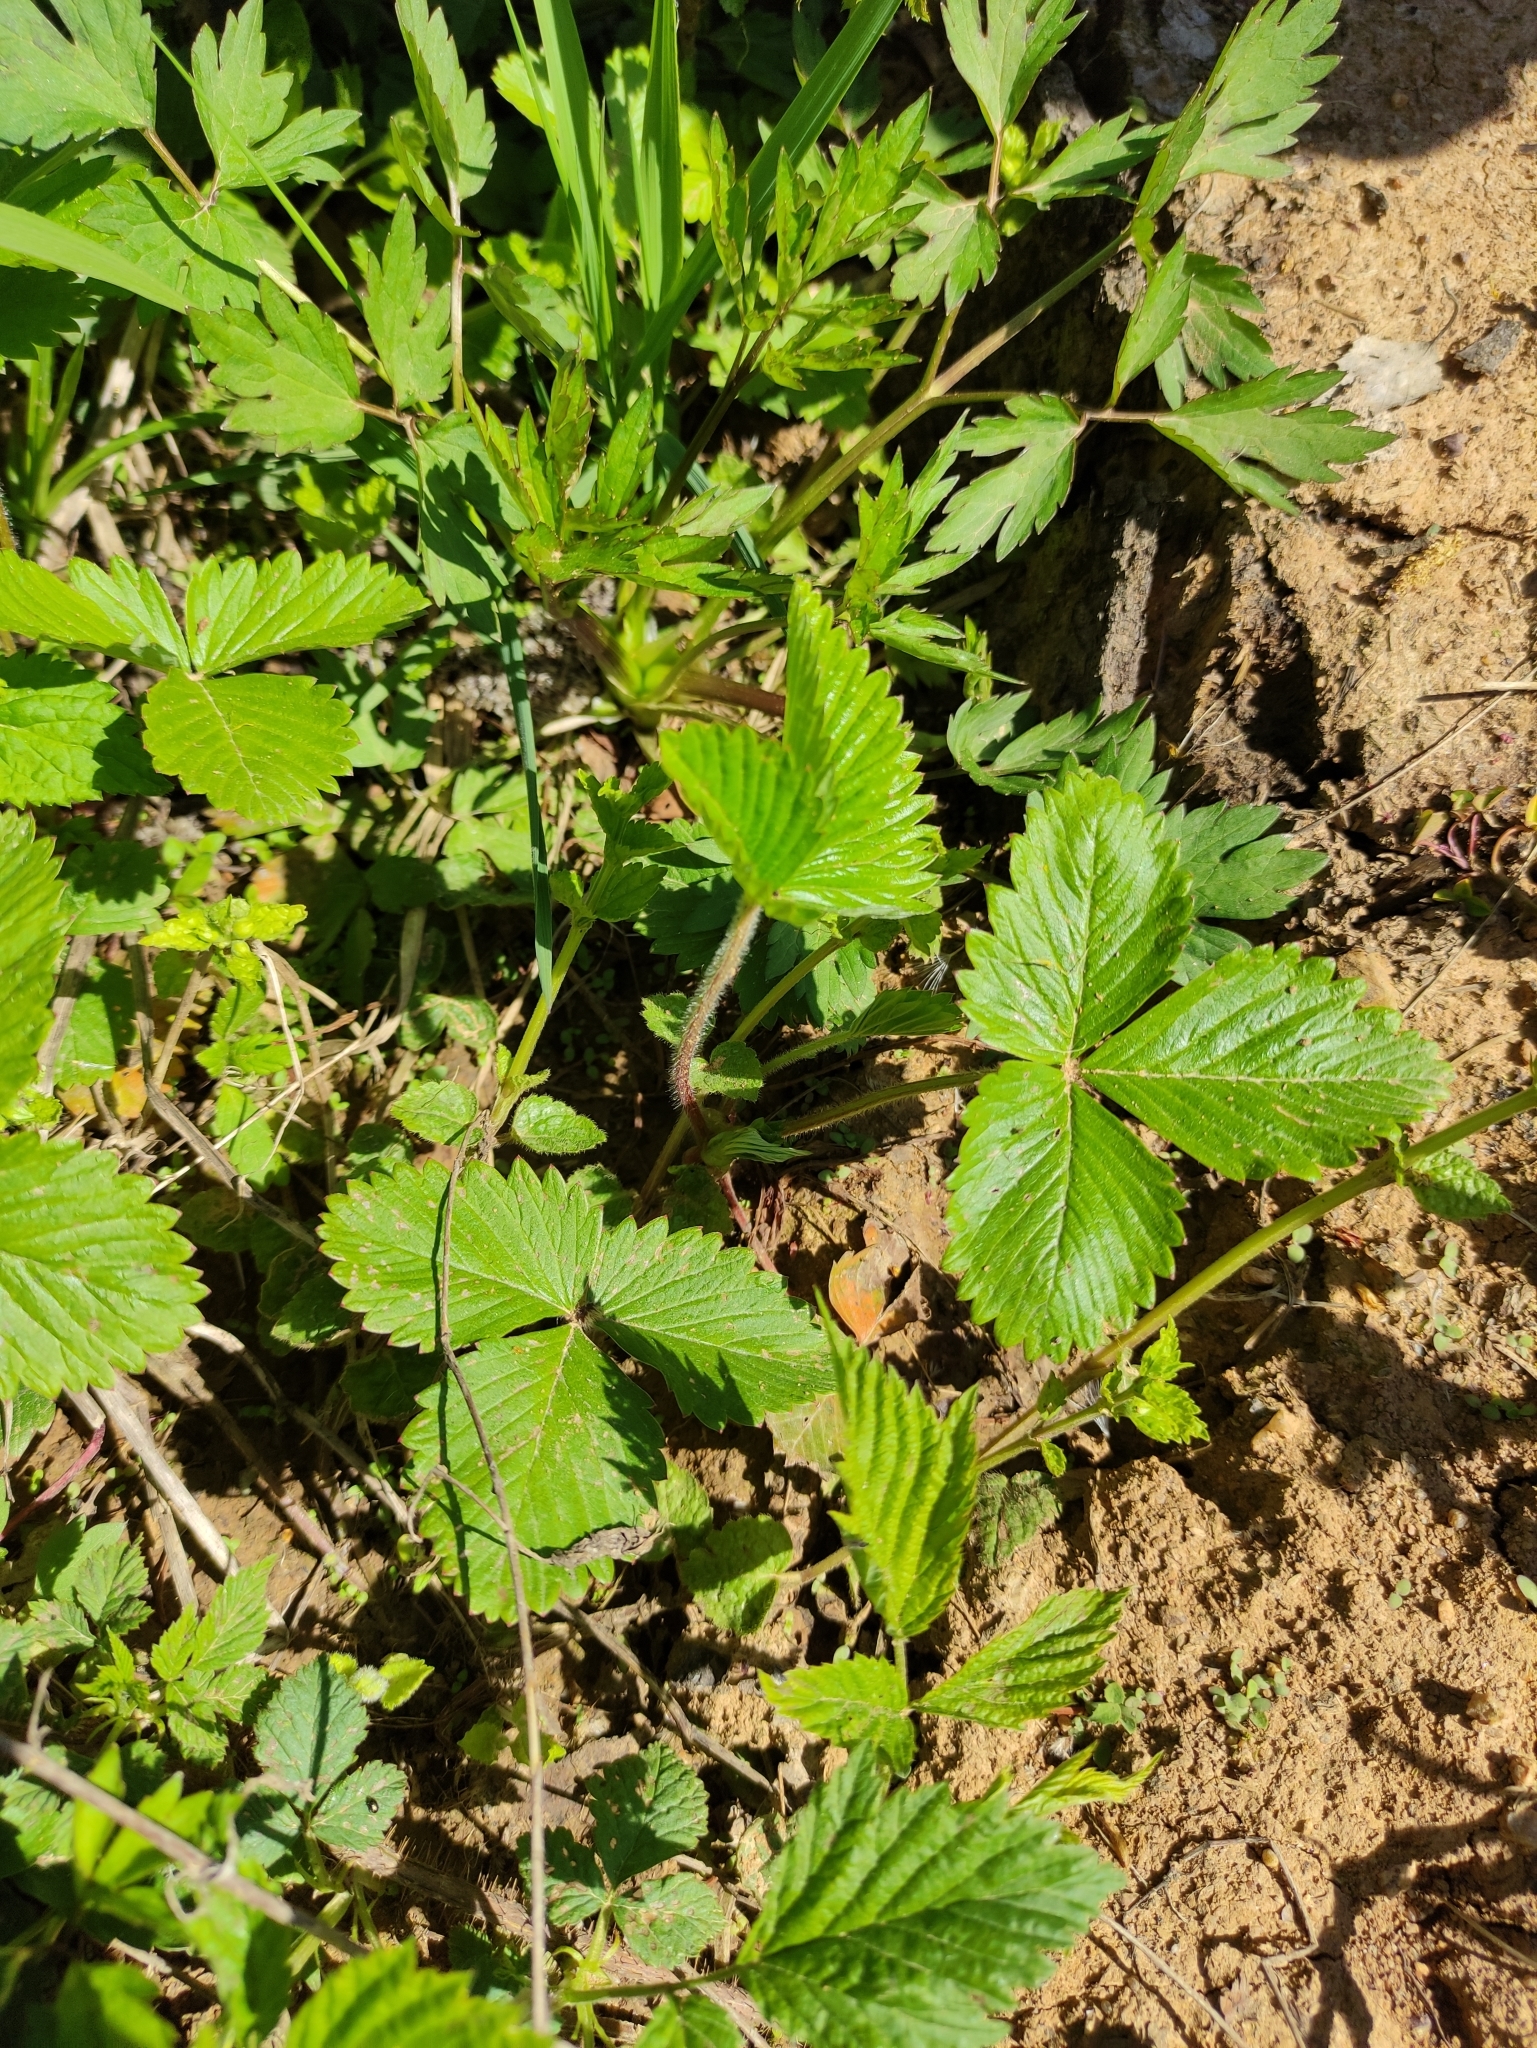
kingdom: Plantae
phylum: Tracheophyta
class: Magnoliopsida
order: Rosales
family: Rosaceae
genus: Fragaria
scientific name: Fragaria vesca
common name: Wild strawberry
